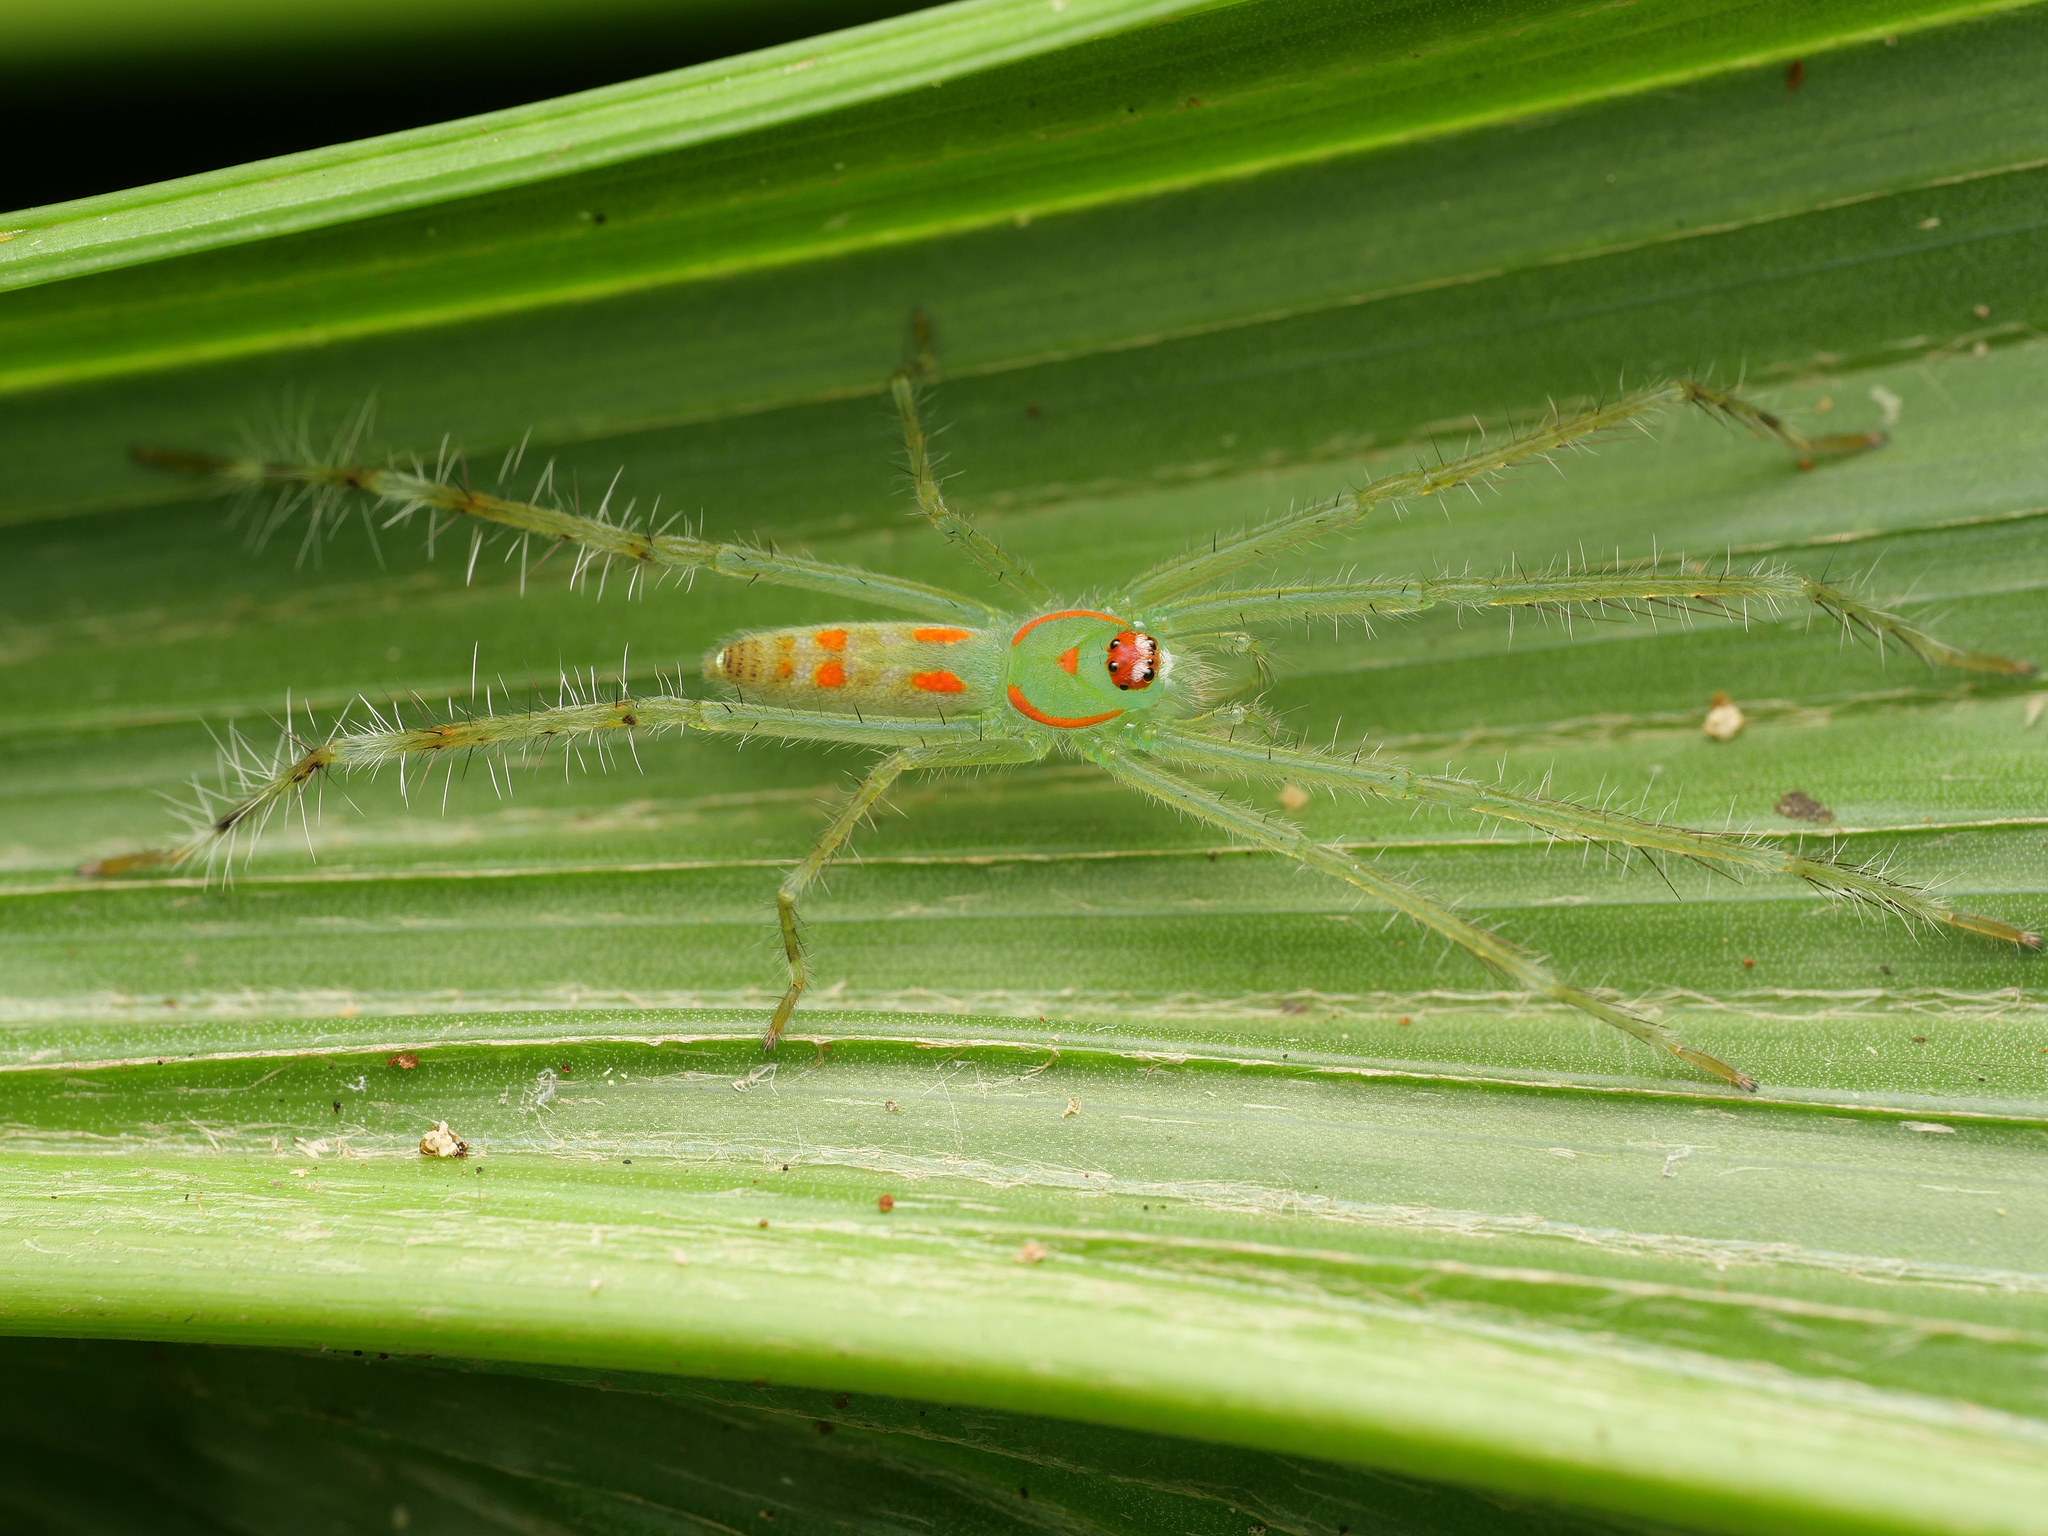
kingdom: Animalia
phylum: Arthropoda
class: Arachnida
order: Araneae
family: Sparassidae
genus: Clastes
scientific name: Clastes
